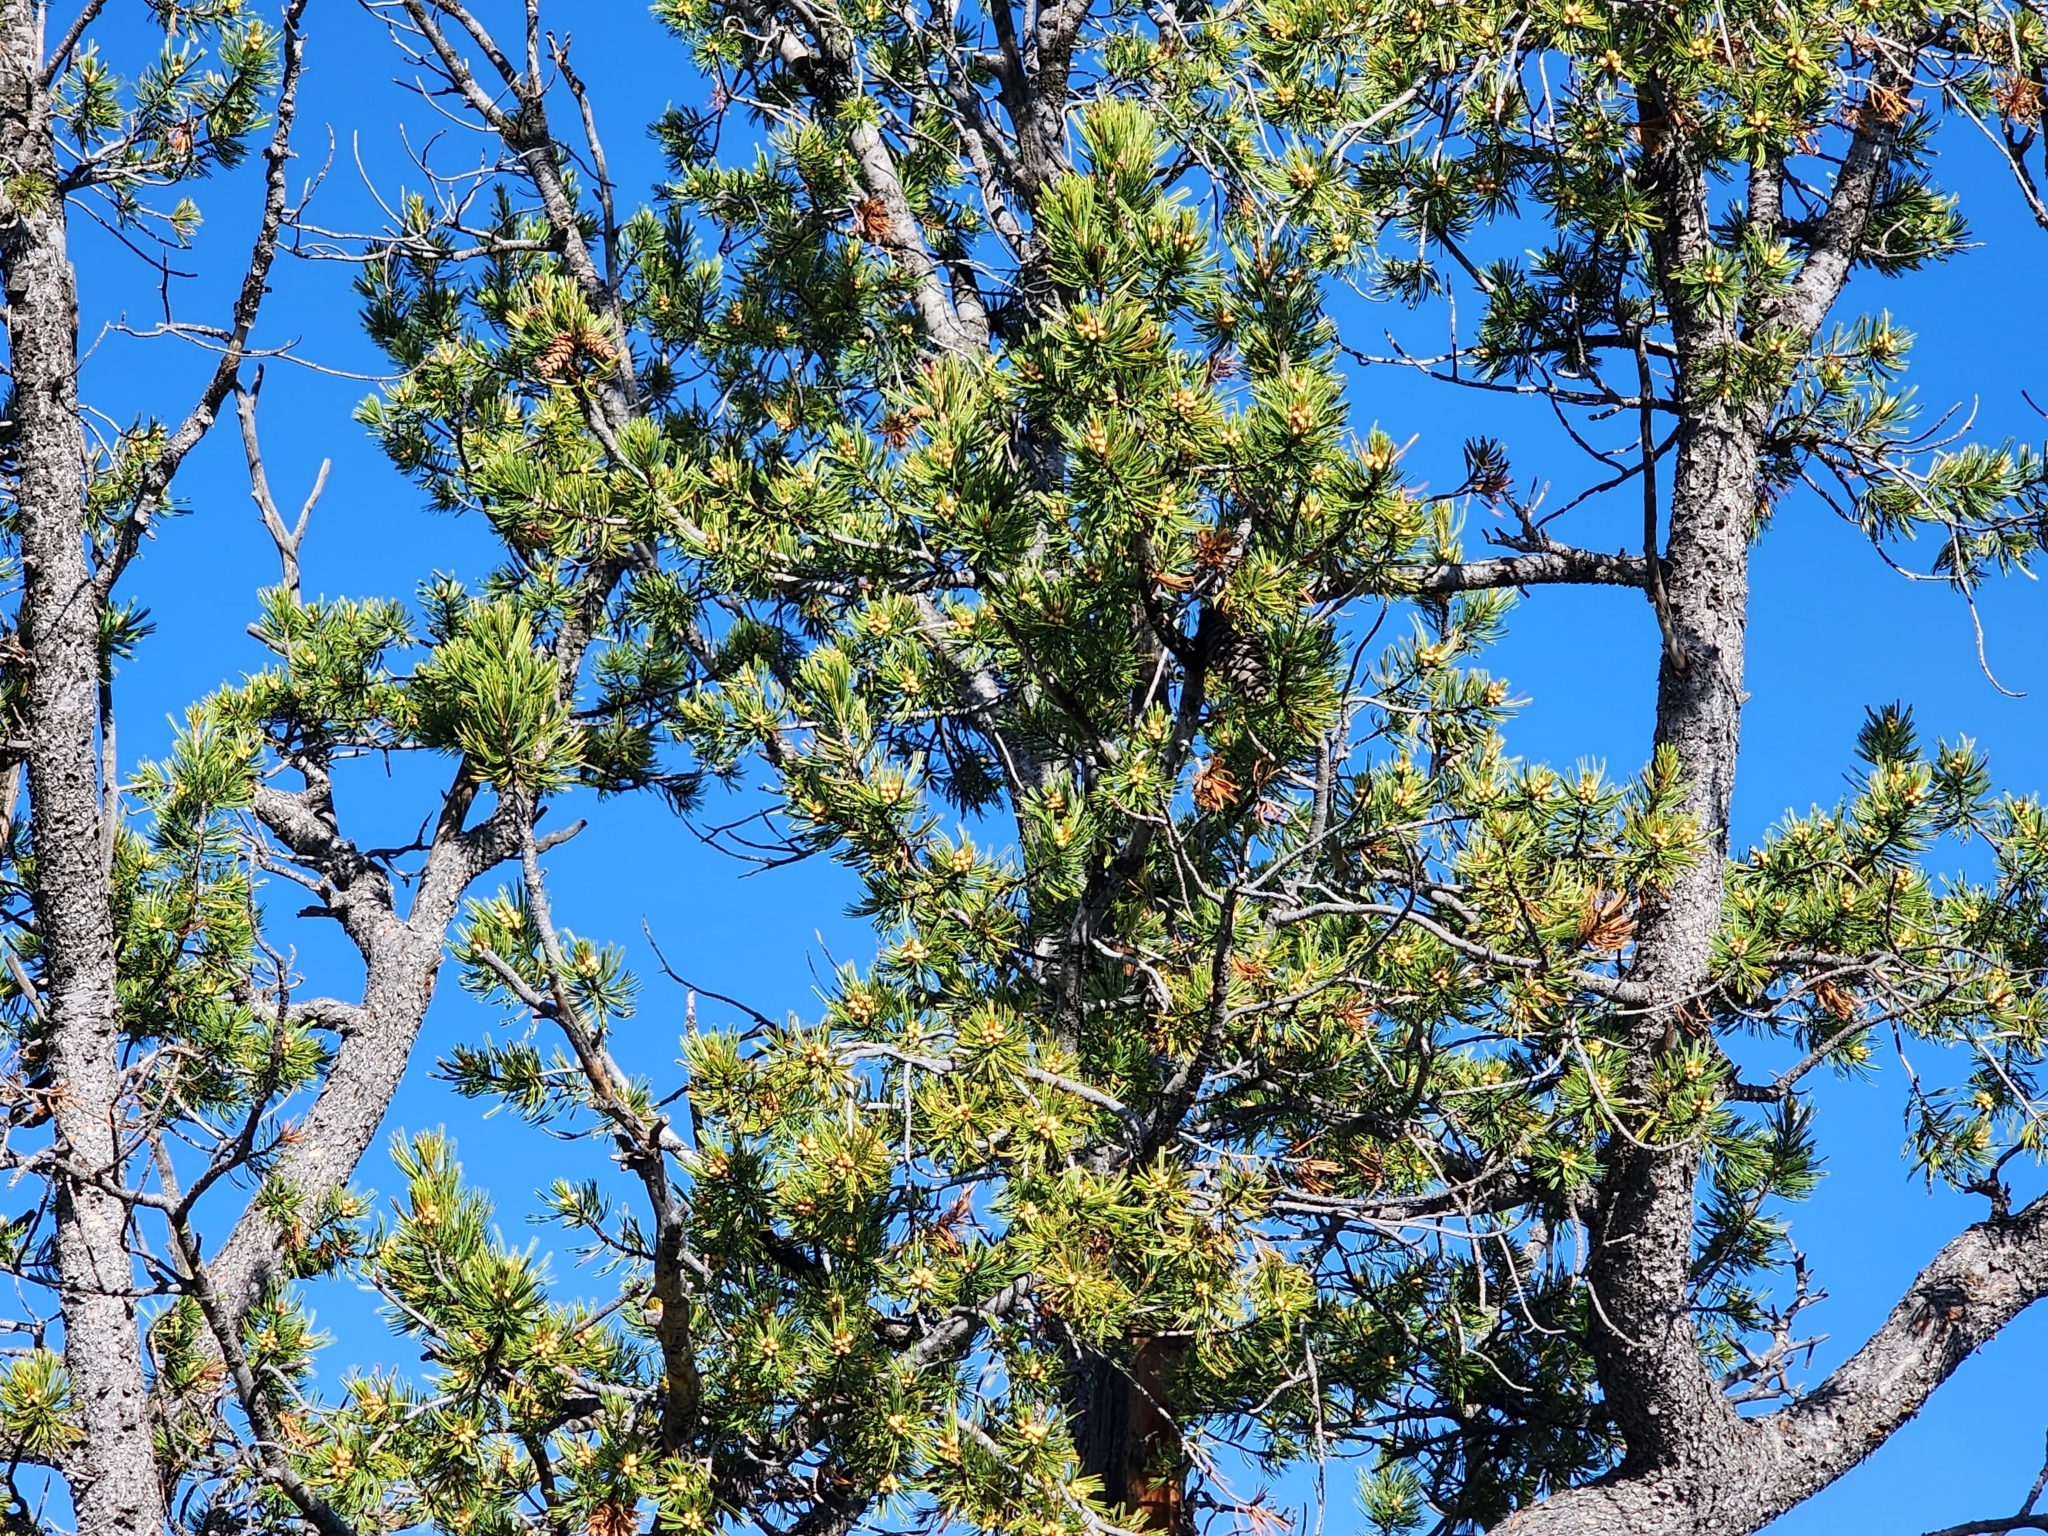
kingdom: Plantae
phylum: Tracheophyta
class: Pinopsida
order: Pinales
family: Pinaceae
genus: Pinus
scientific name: Pinus flexilis
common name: Limber pine
